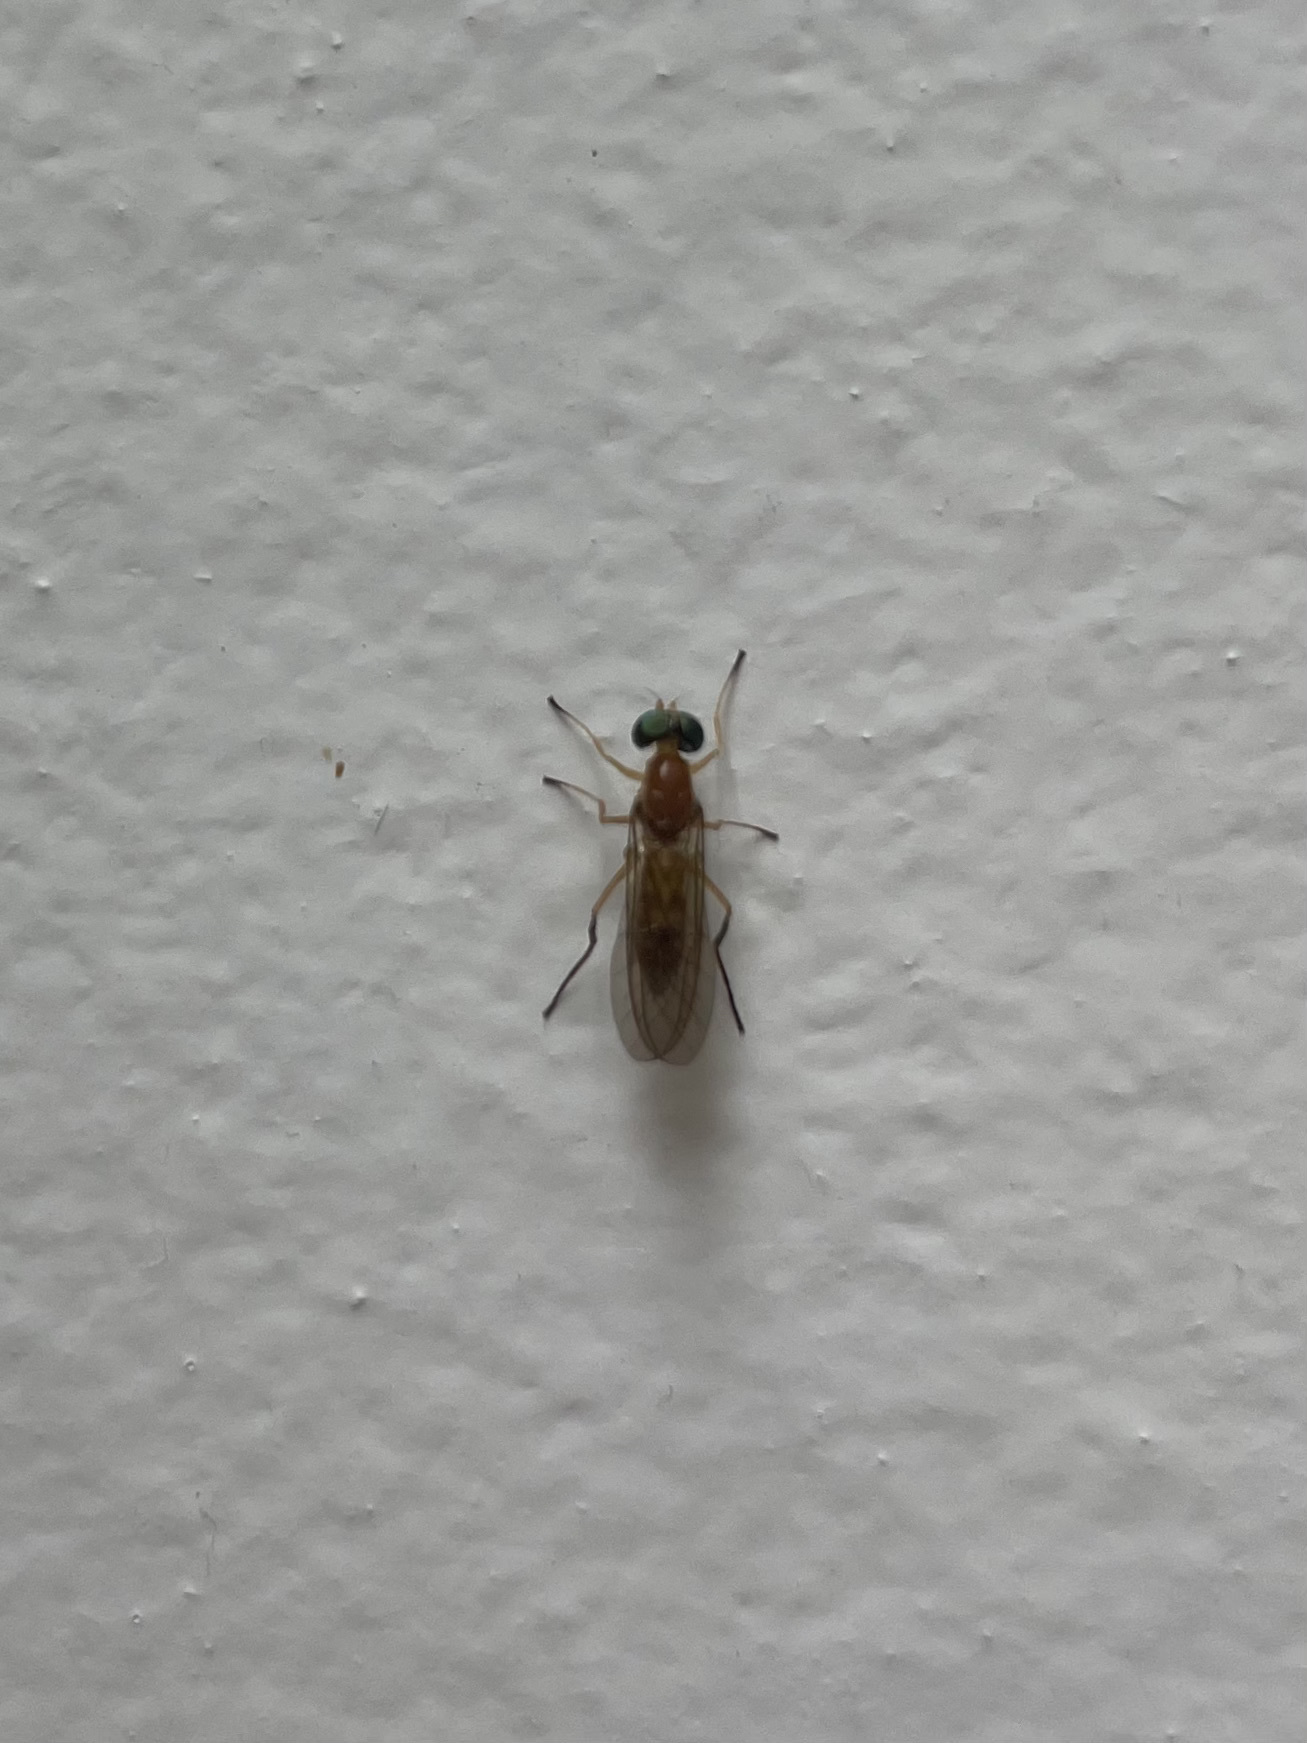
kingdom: Animalia
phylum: Arthropoda
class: Insecta
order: Diptera
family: Stratiomyidae
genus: Ptecticus
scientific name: Ptecticus trivittatus
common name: Compost fly
